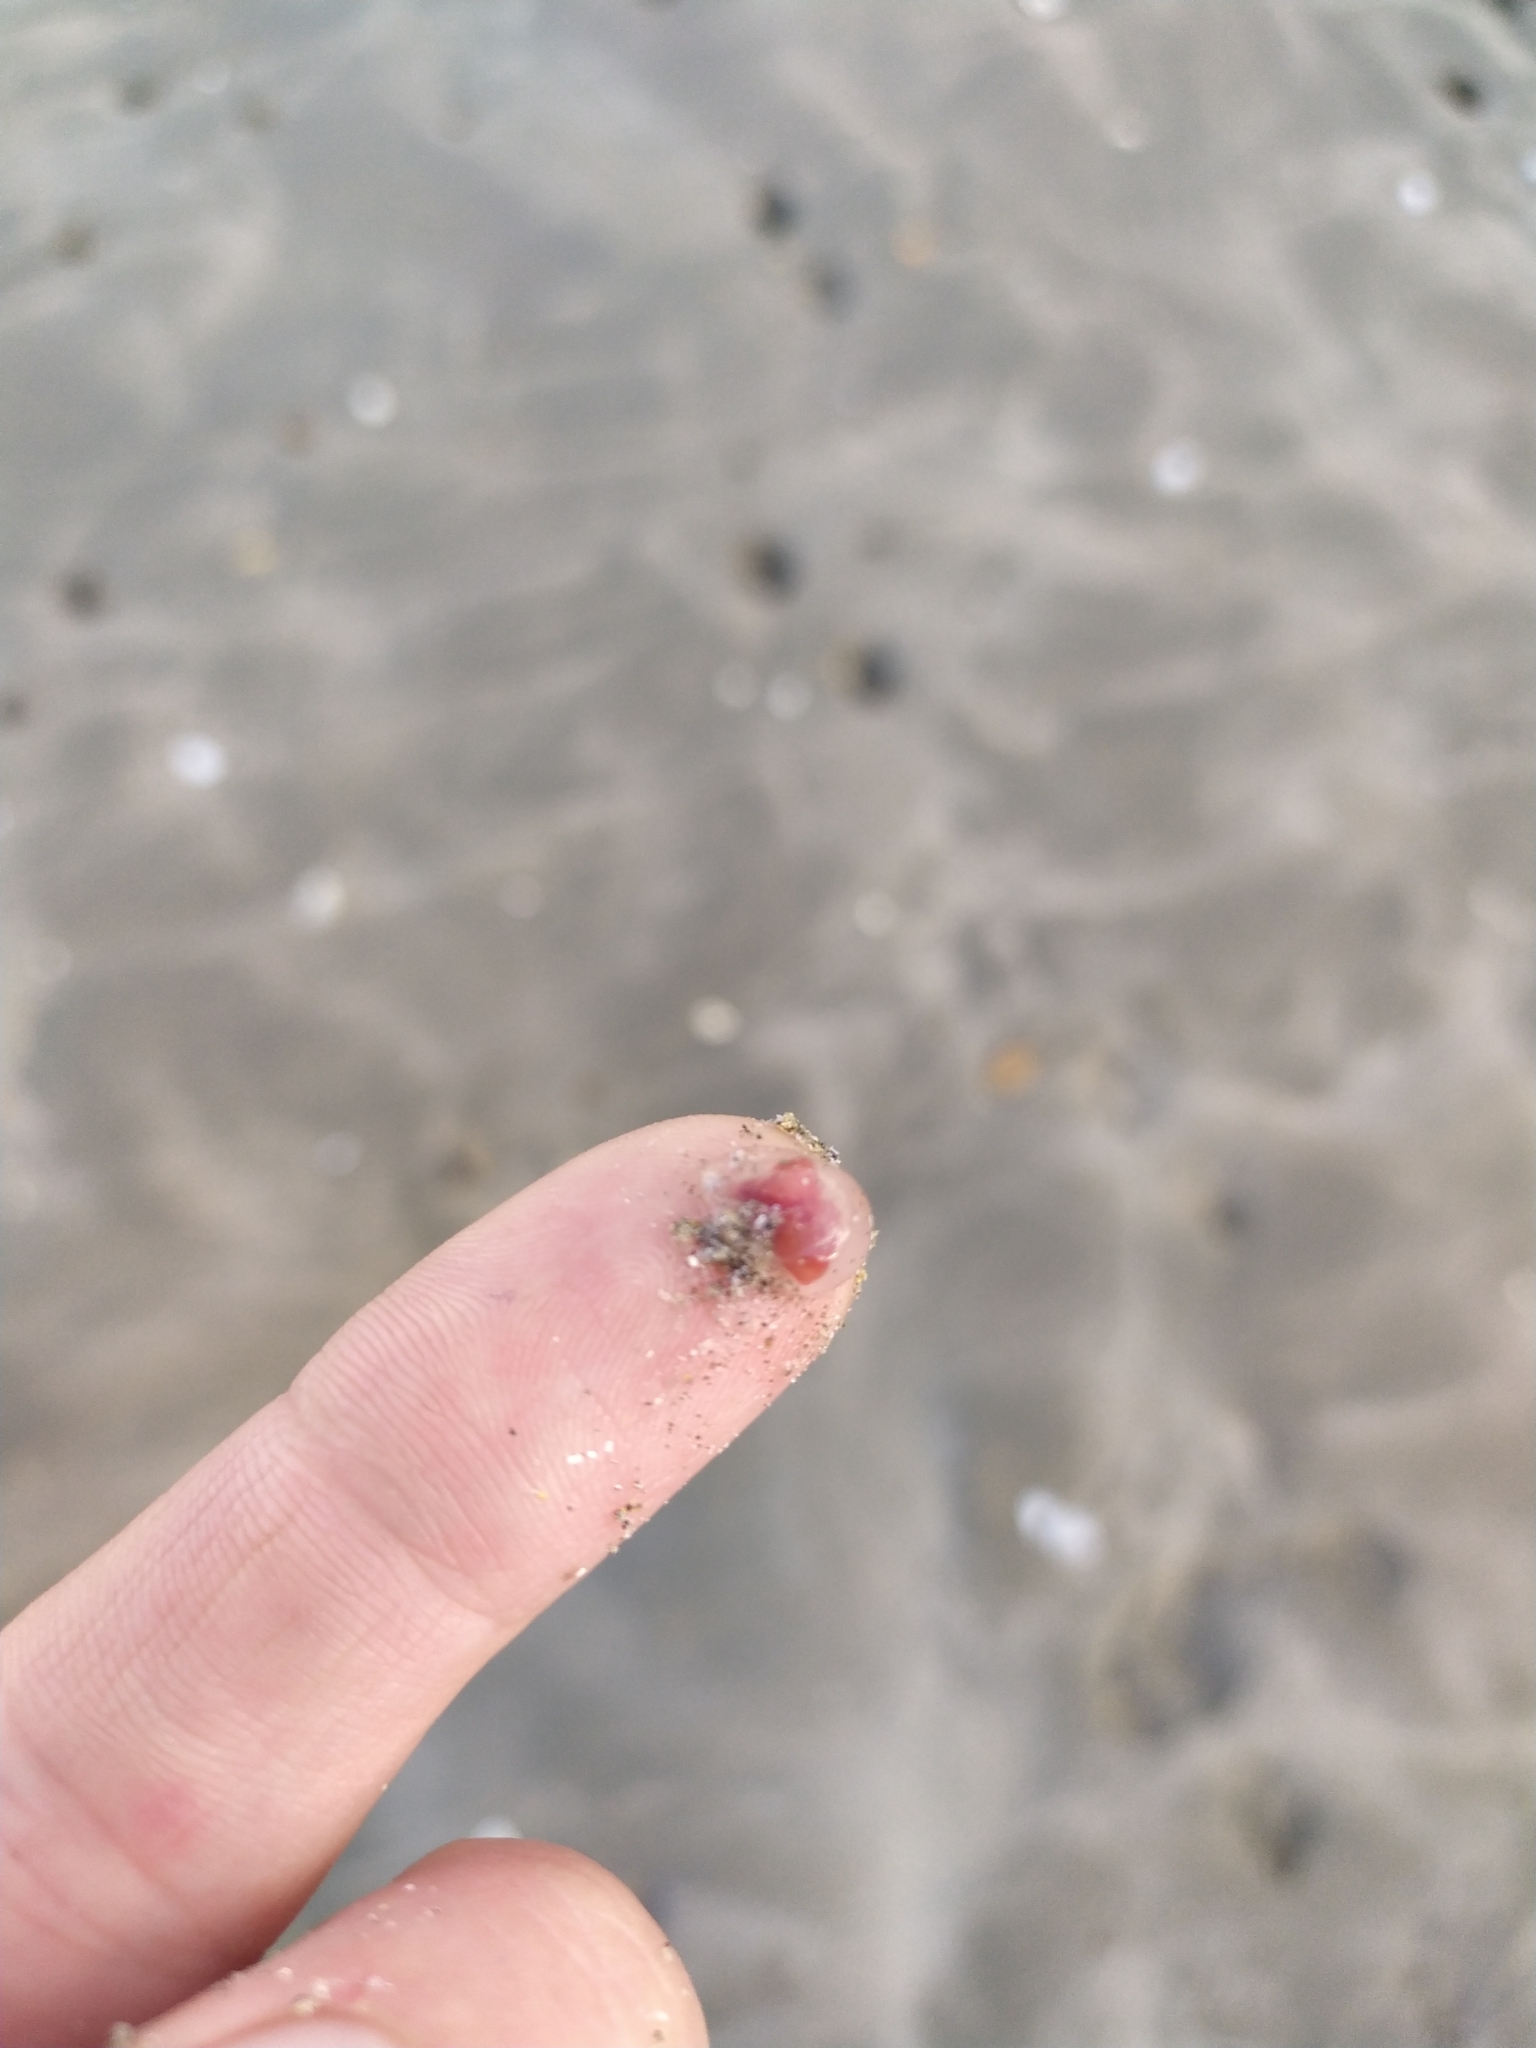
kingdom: Animalia
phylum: Cnidaria
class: Hydrozoa
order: Anthoathecata
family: Oceaniidae
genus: Turritopsis
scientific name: Turritopsis rubra
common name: Crimson jelly
